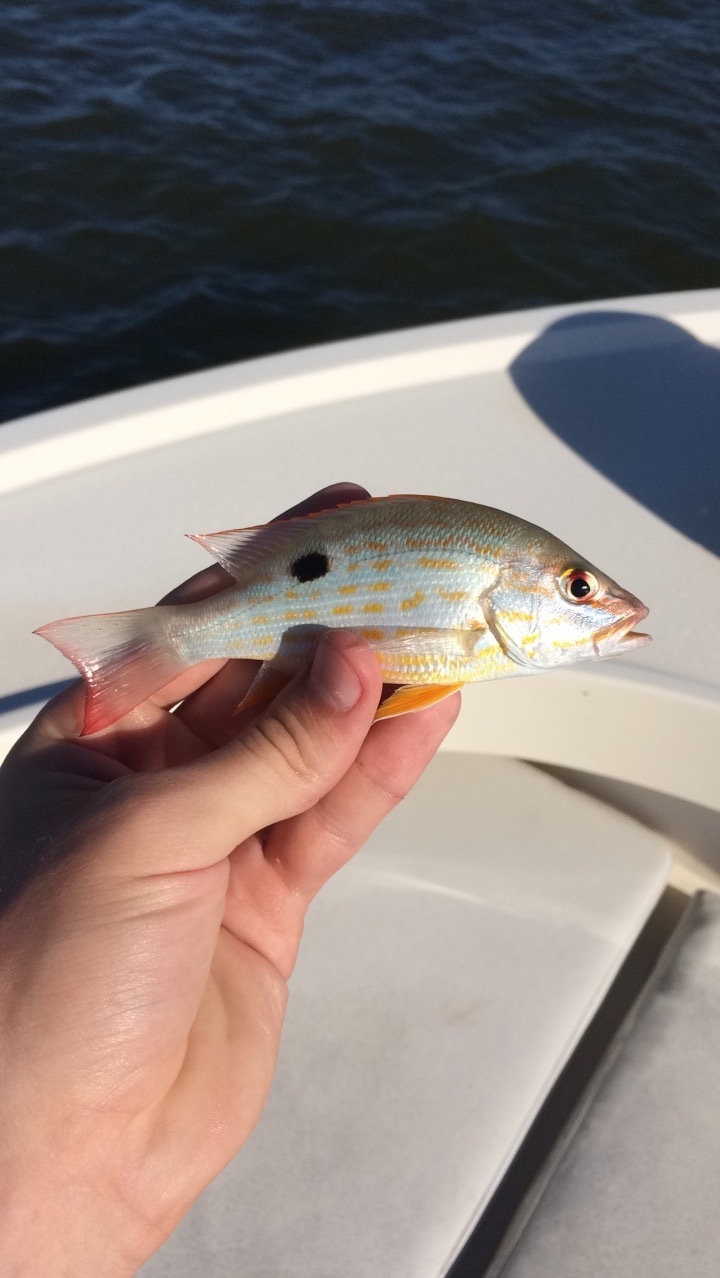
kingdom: Animalia
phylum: Chordata
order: Perciformes
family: Lutjanidae
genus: Lutjanus
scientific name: Lutjanus synagris
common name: Lane snapper
